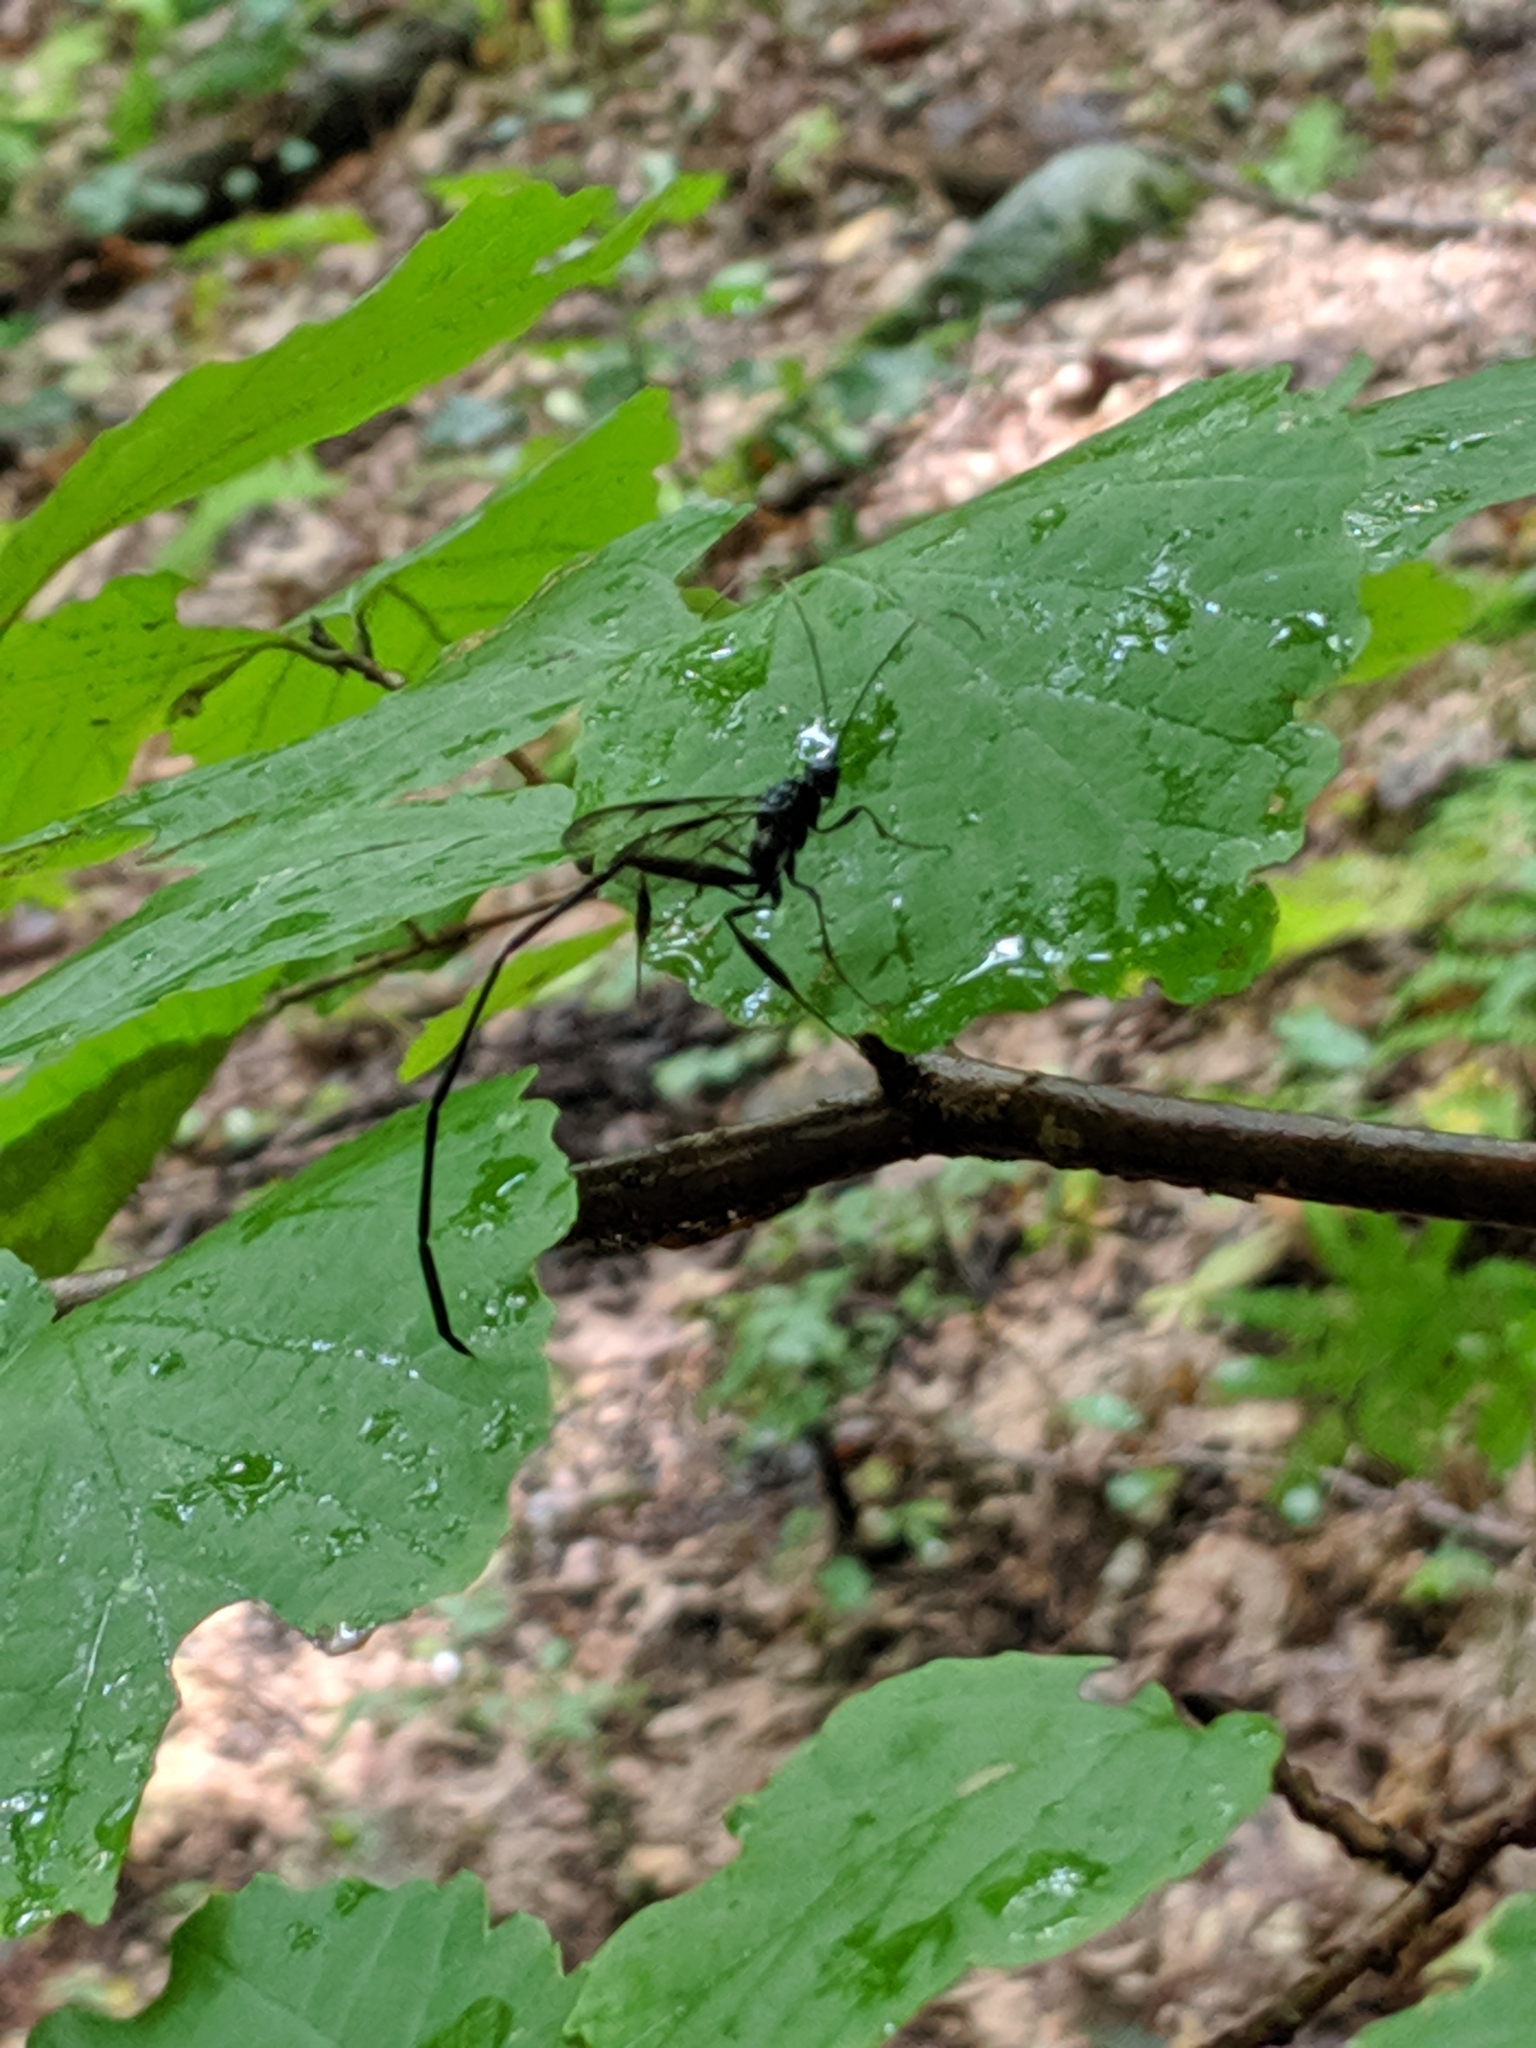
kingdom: Animalia
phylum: Arthropoda
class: Insecta
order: Hymenoptera
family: Pelecinidae
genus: Pelecinus
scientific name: Pelecinus polyturator
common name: American pelecinid wasp
